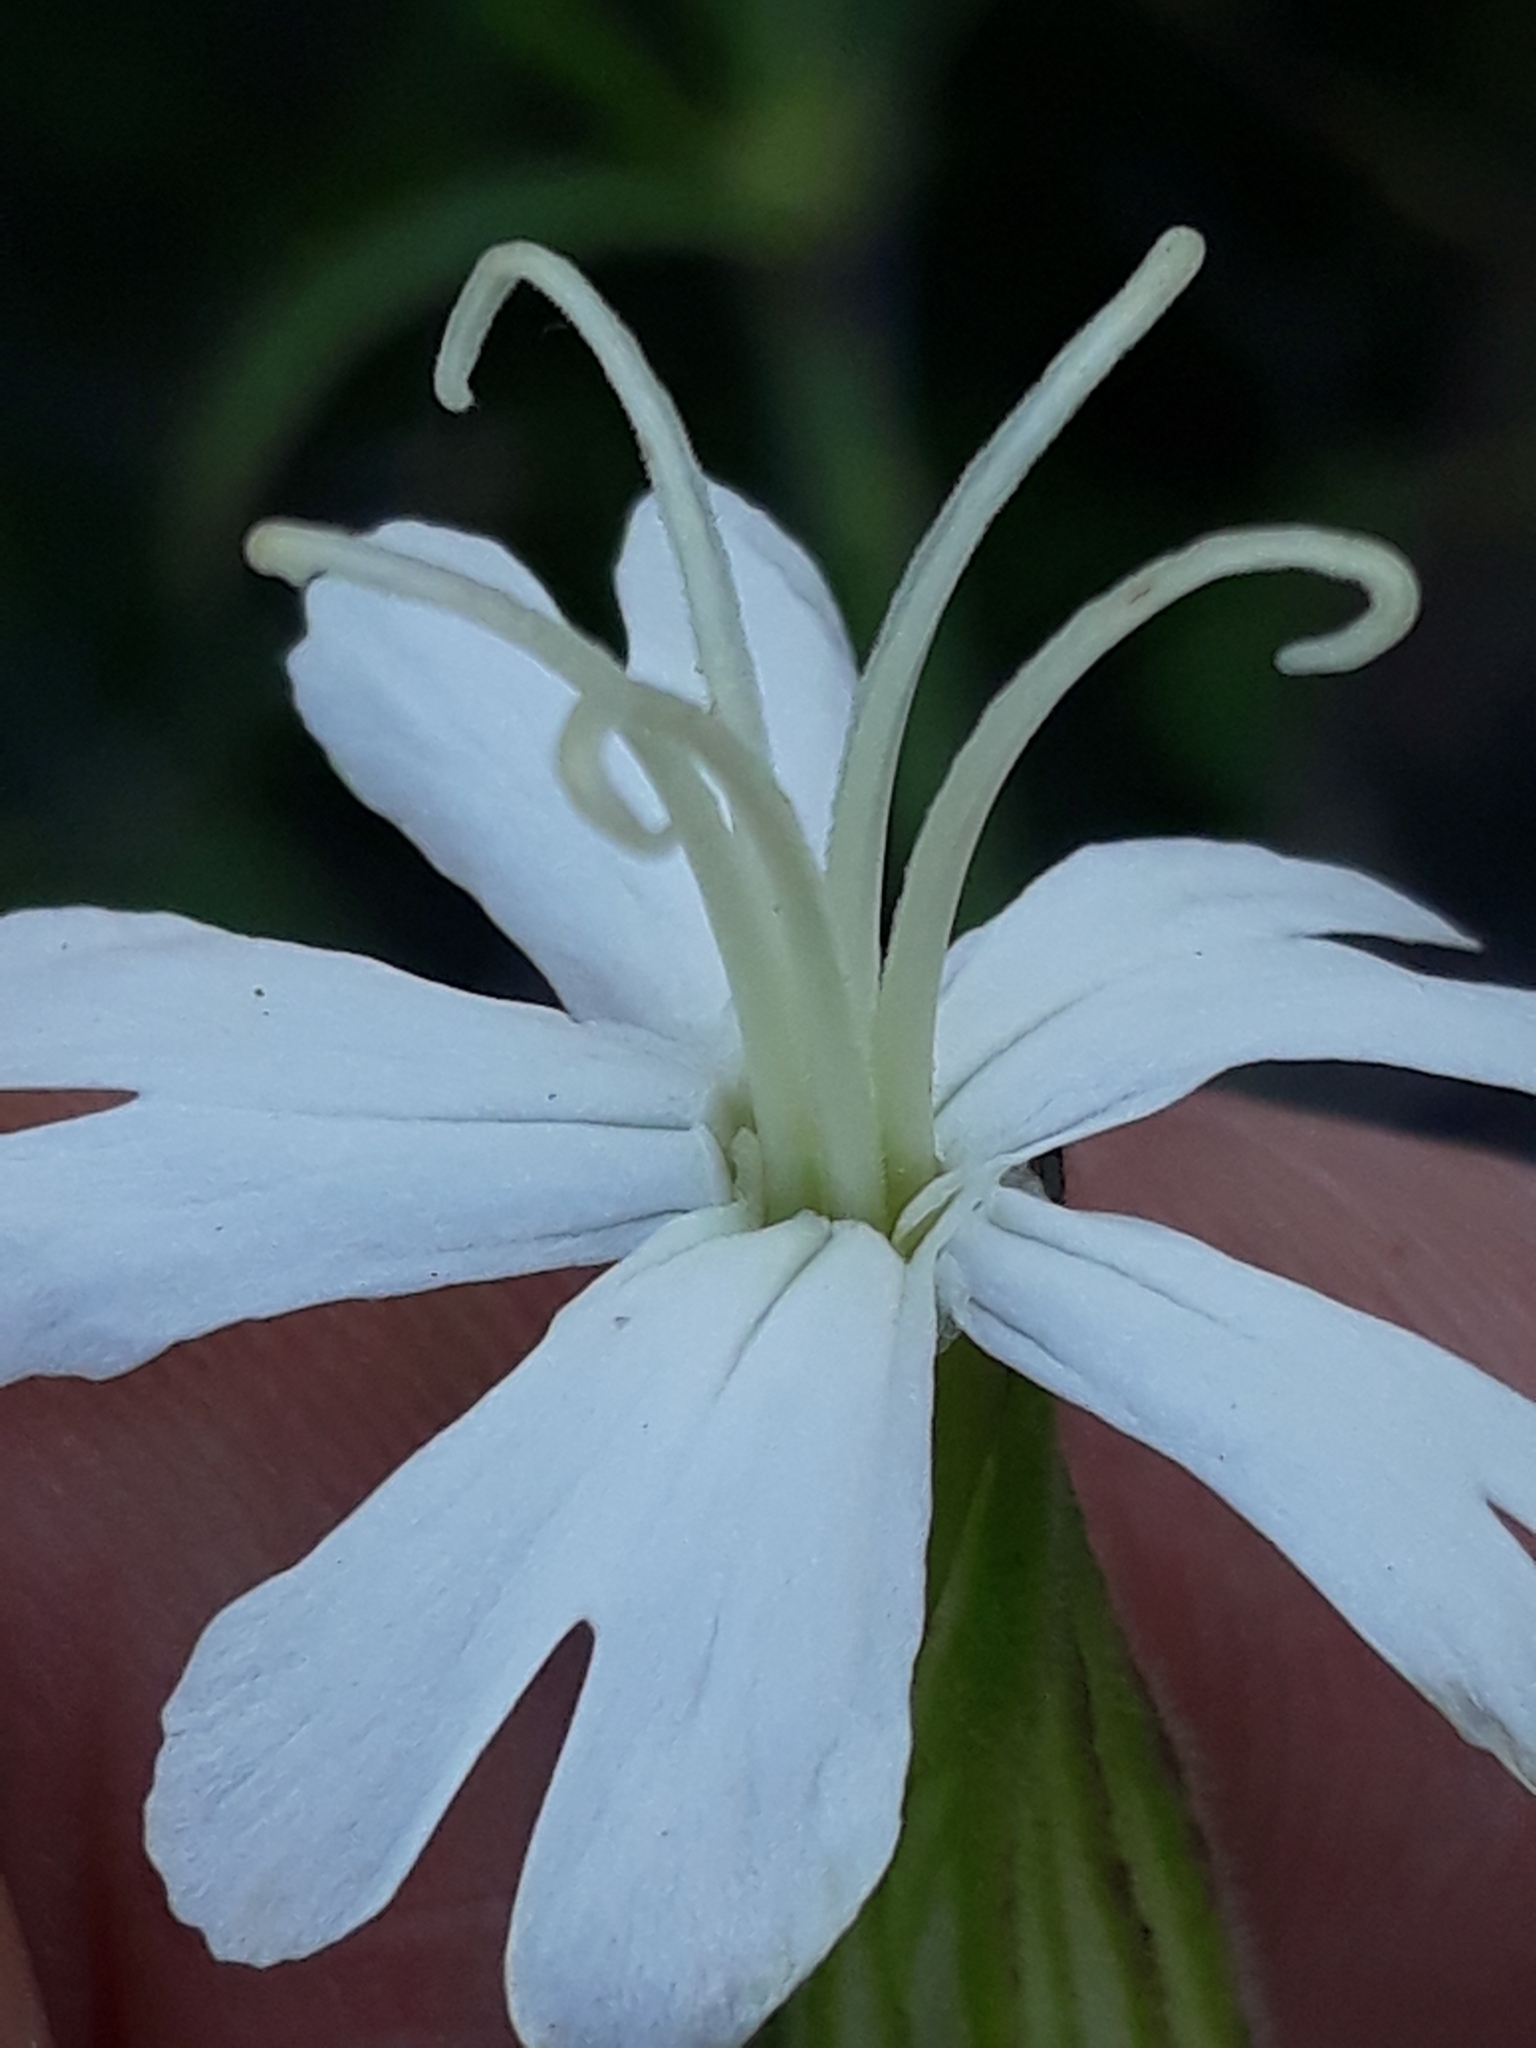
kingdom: Plantae
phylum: Tracheophyta
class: Magnoliopsida
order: Caryophyllales
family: Caryophyllaceae
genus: Silene
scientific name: Silene latifolia
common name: White campion
